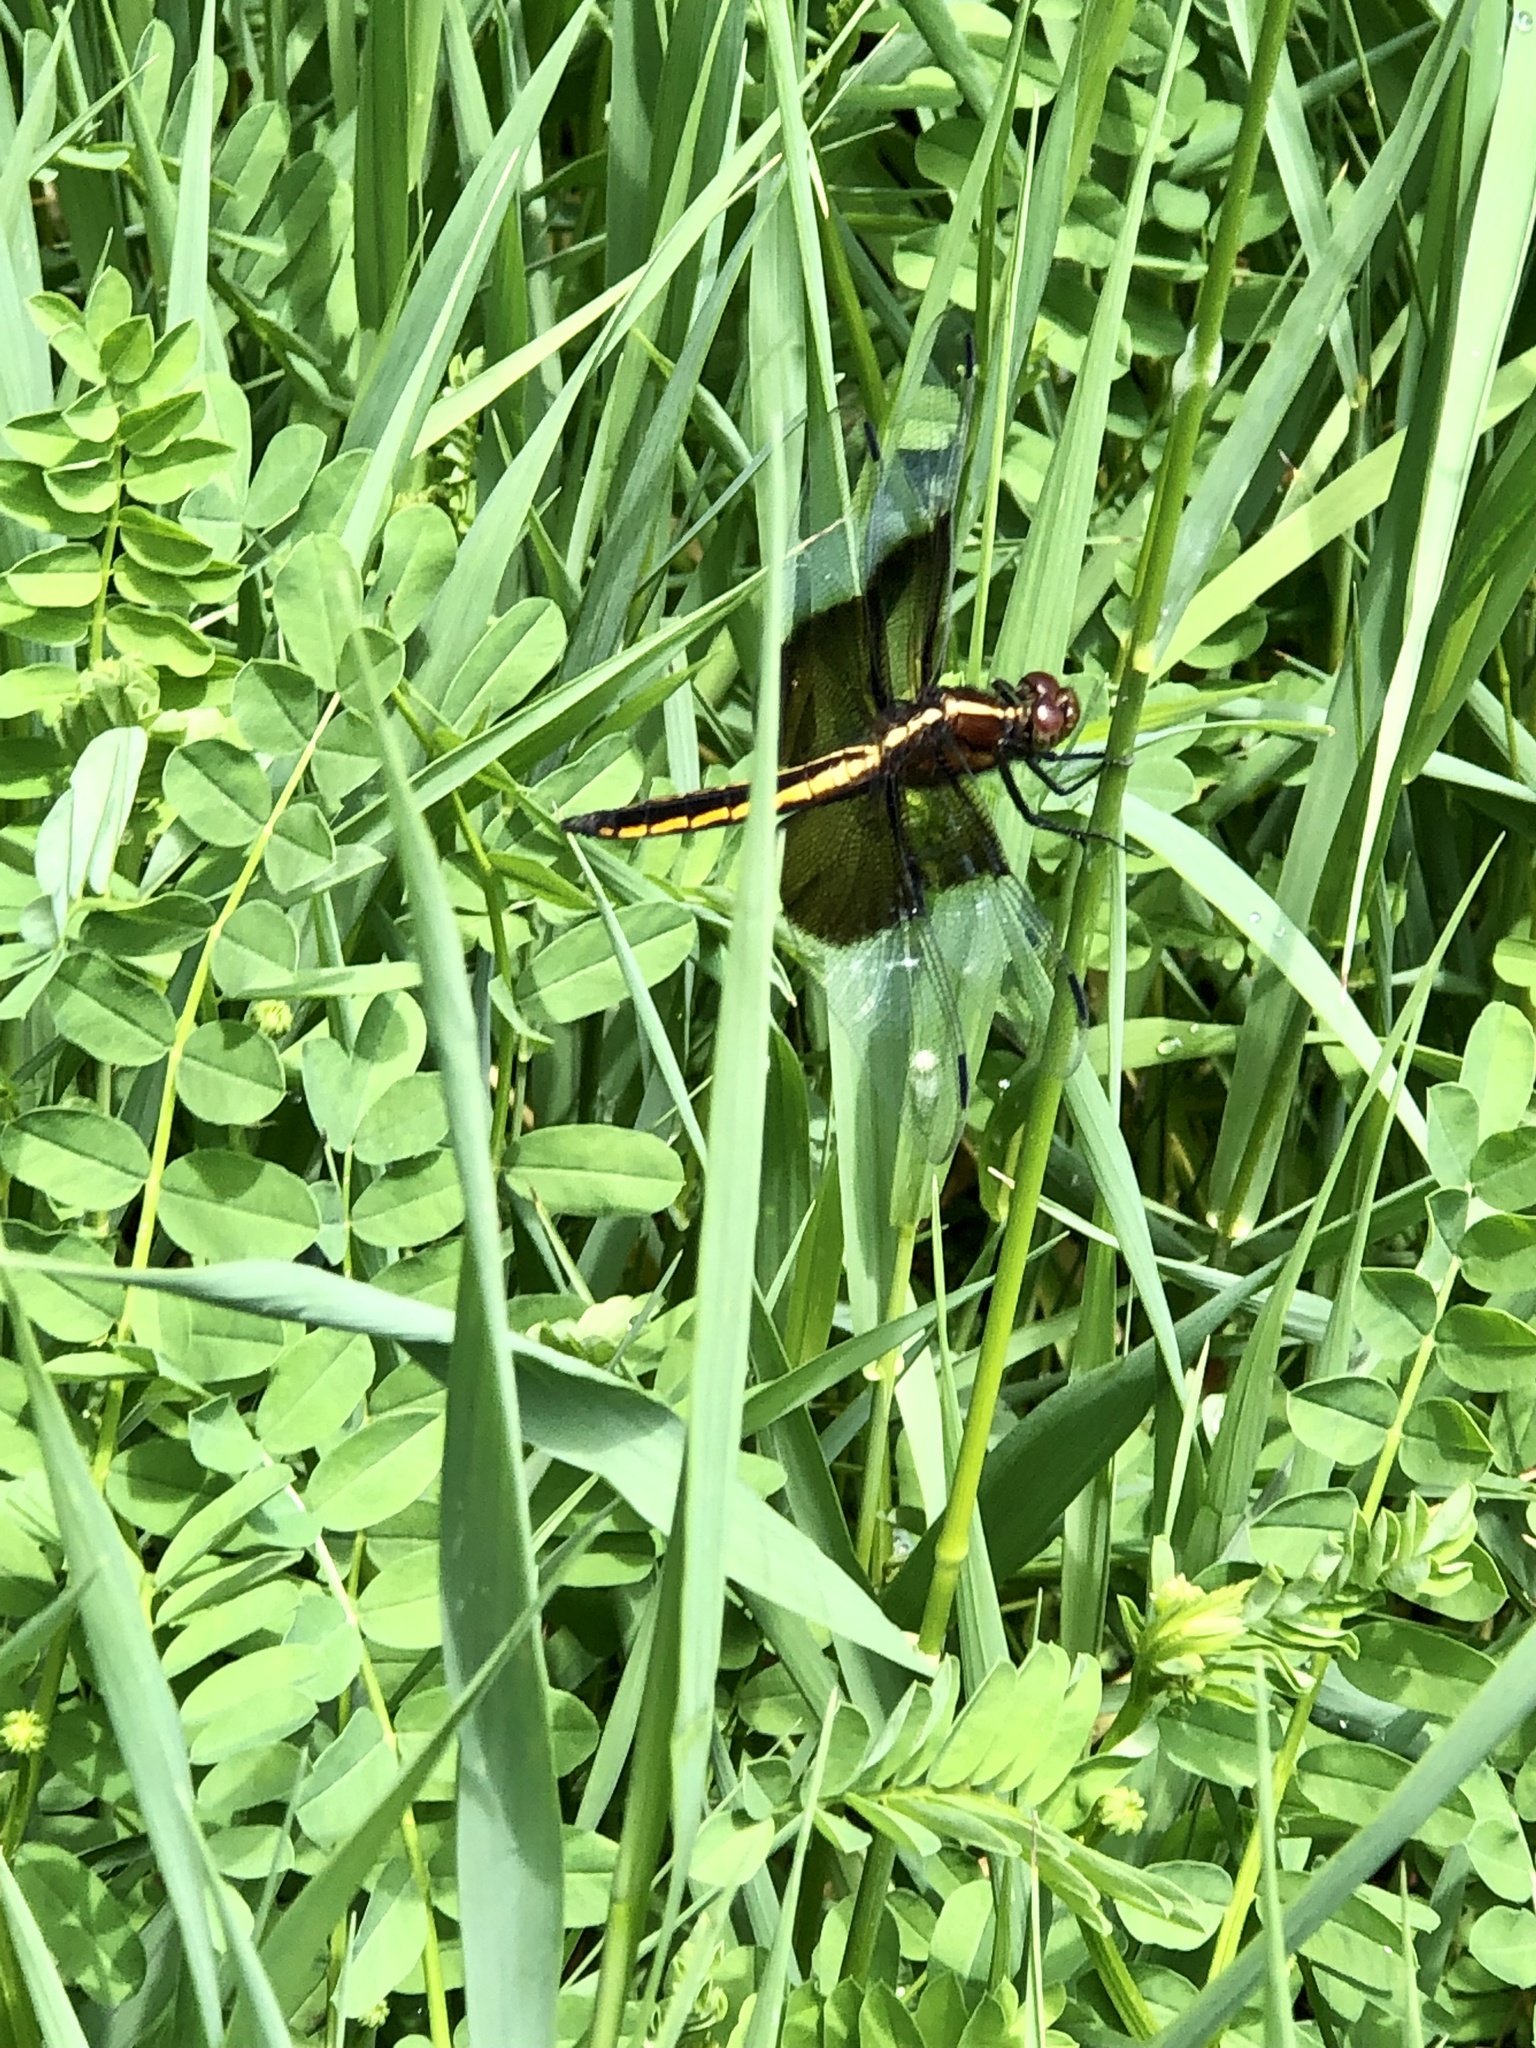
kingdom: Animalia
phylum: Arthropoda
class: Insecta
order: Odonata
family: Libellulidae
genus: Libellula
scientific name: Libellula luctuosa
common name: Widow skimmer
